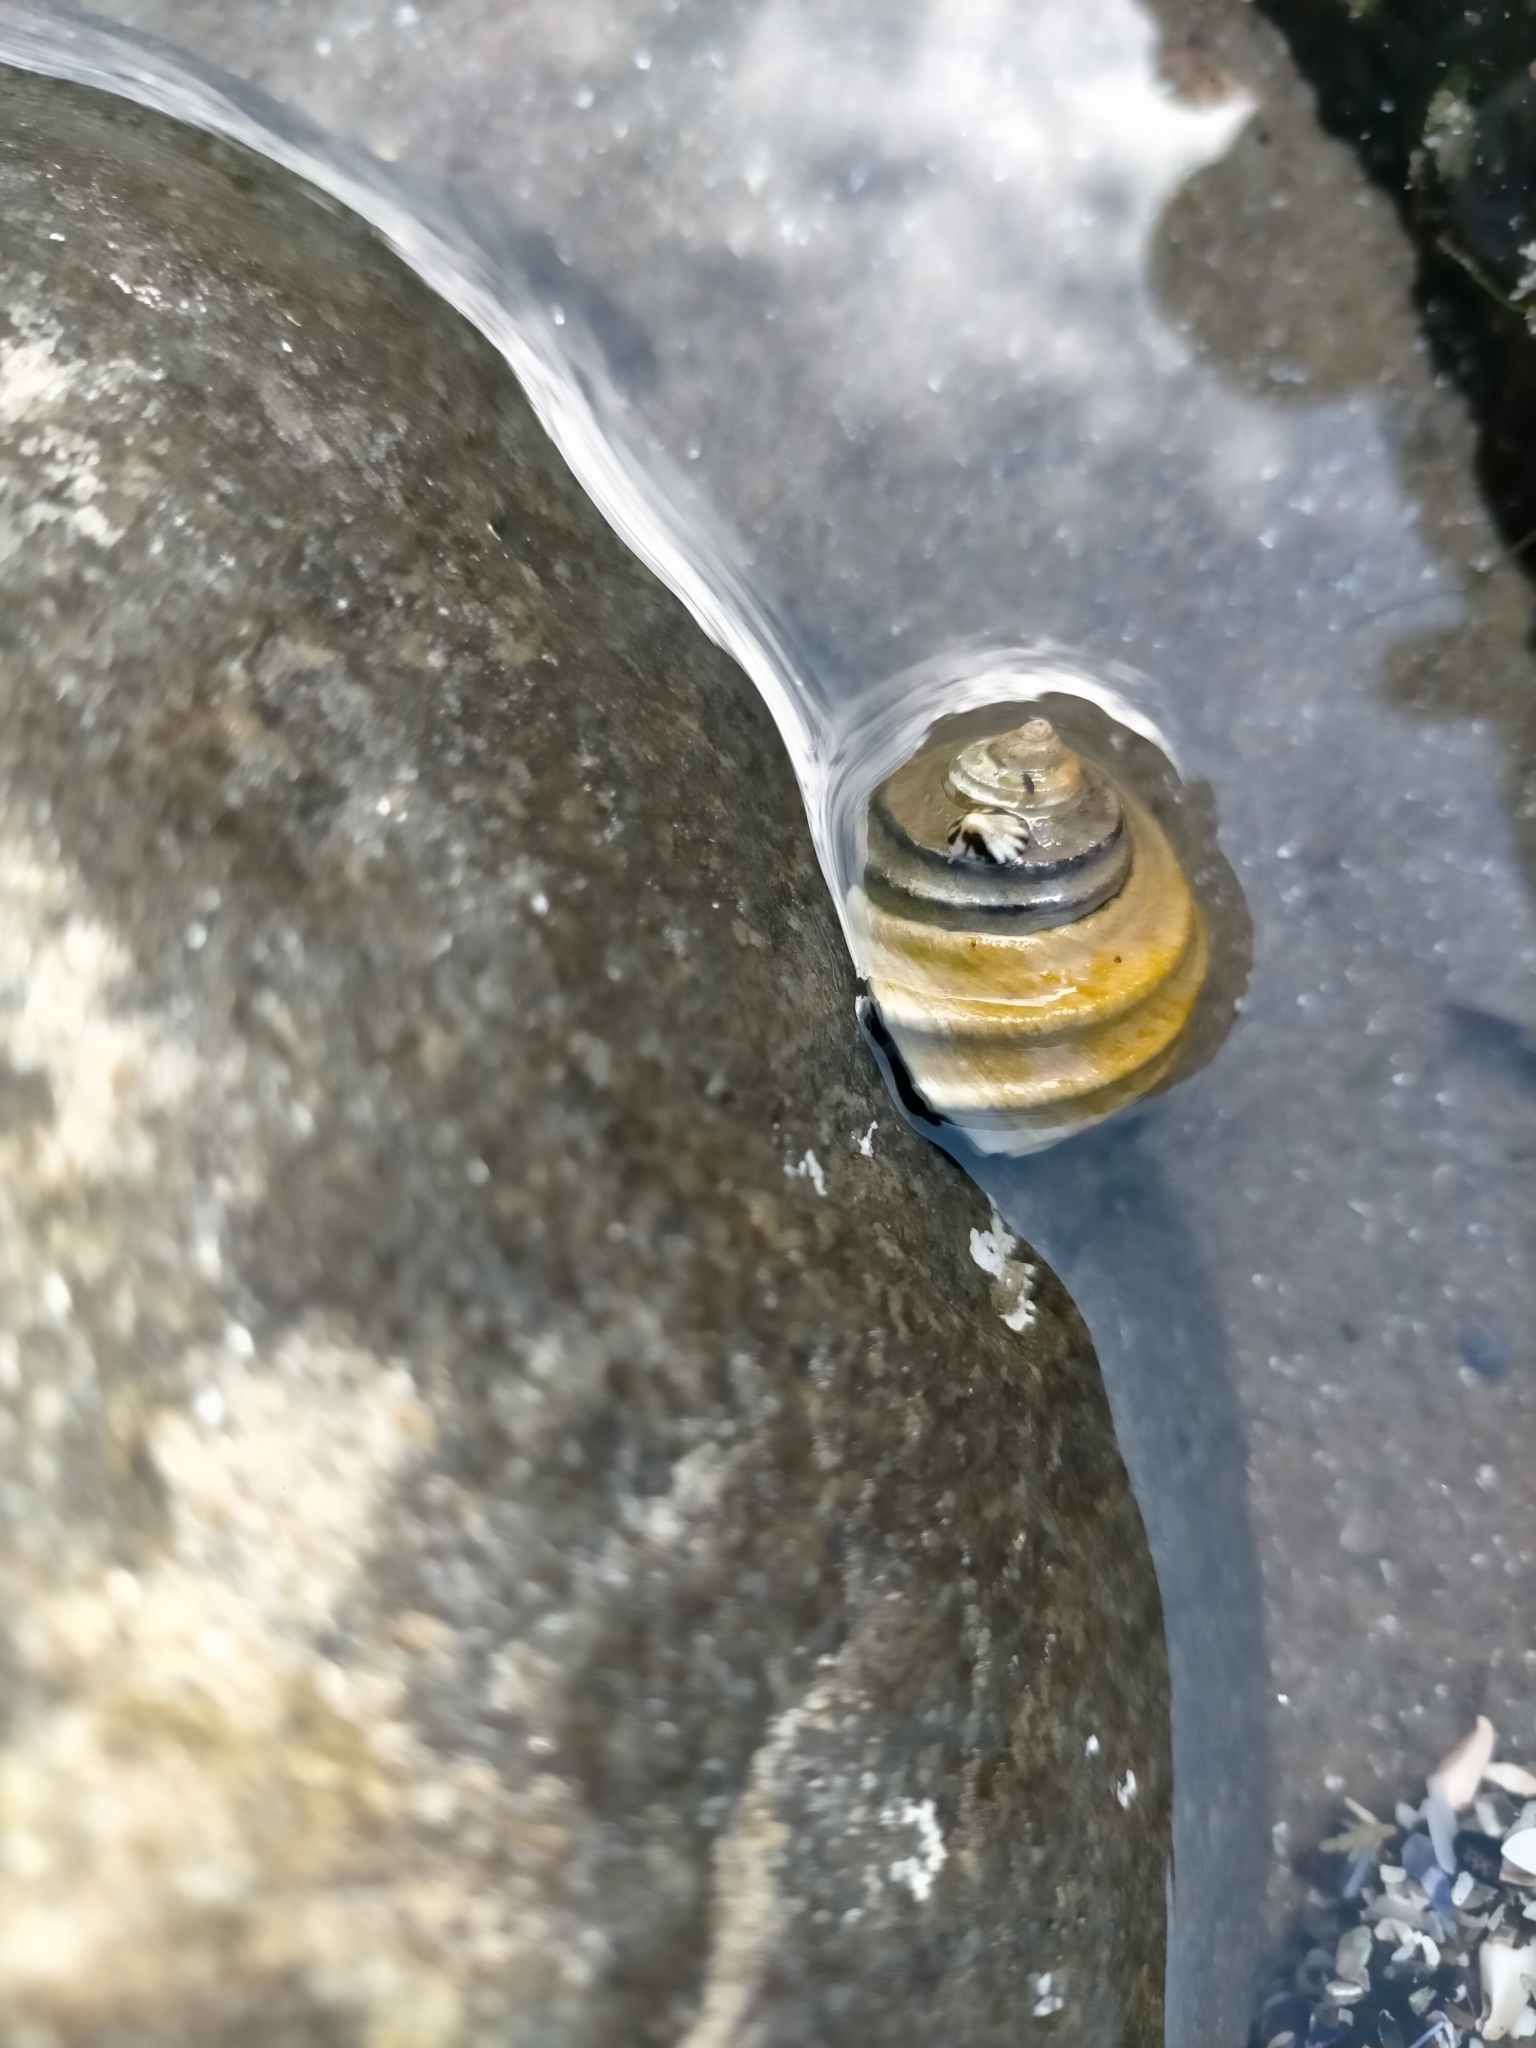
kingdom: Animalia
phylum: Mollusca
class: Gastropoda
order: Trochida
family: Trochidae
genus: Austrocochlea
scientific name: Austrocochlea constricta
